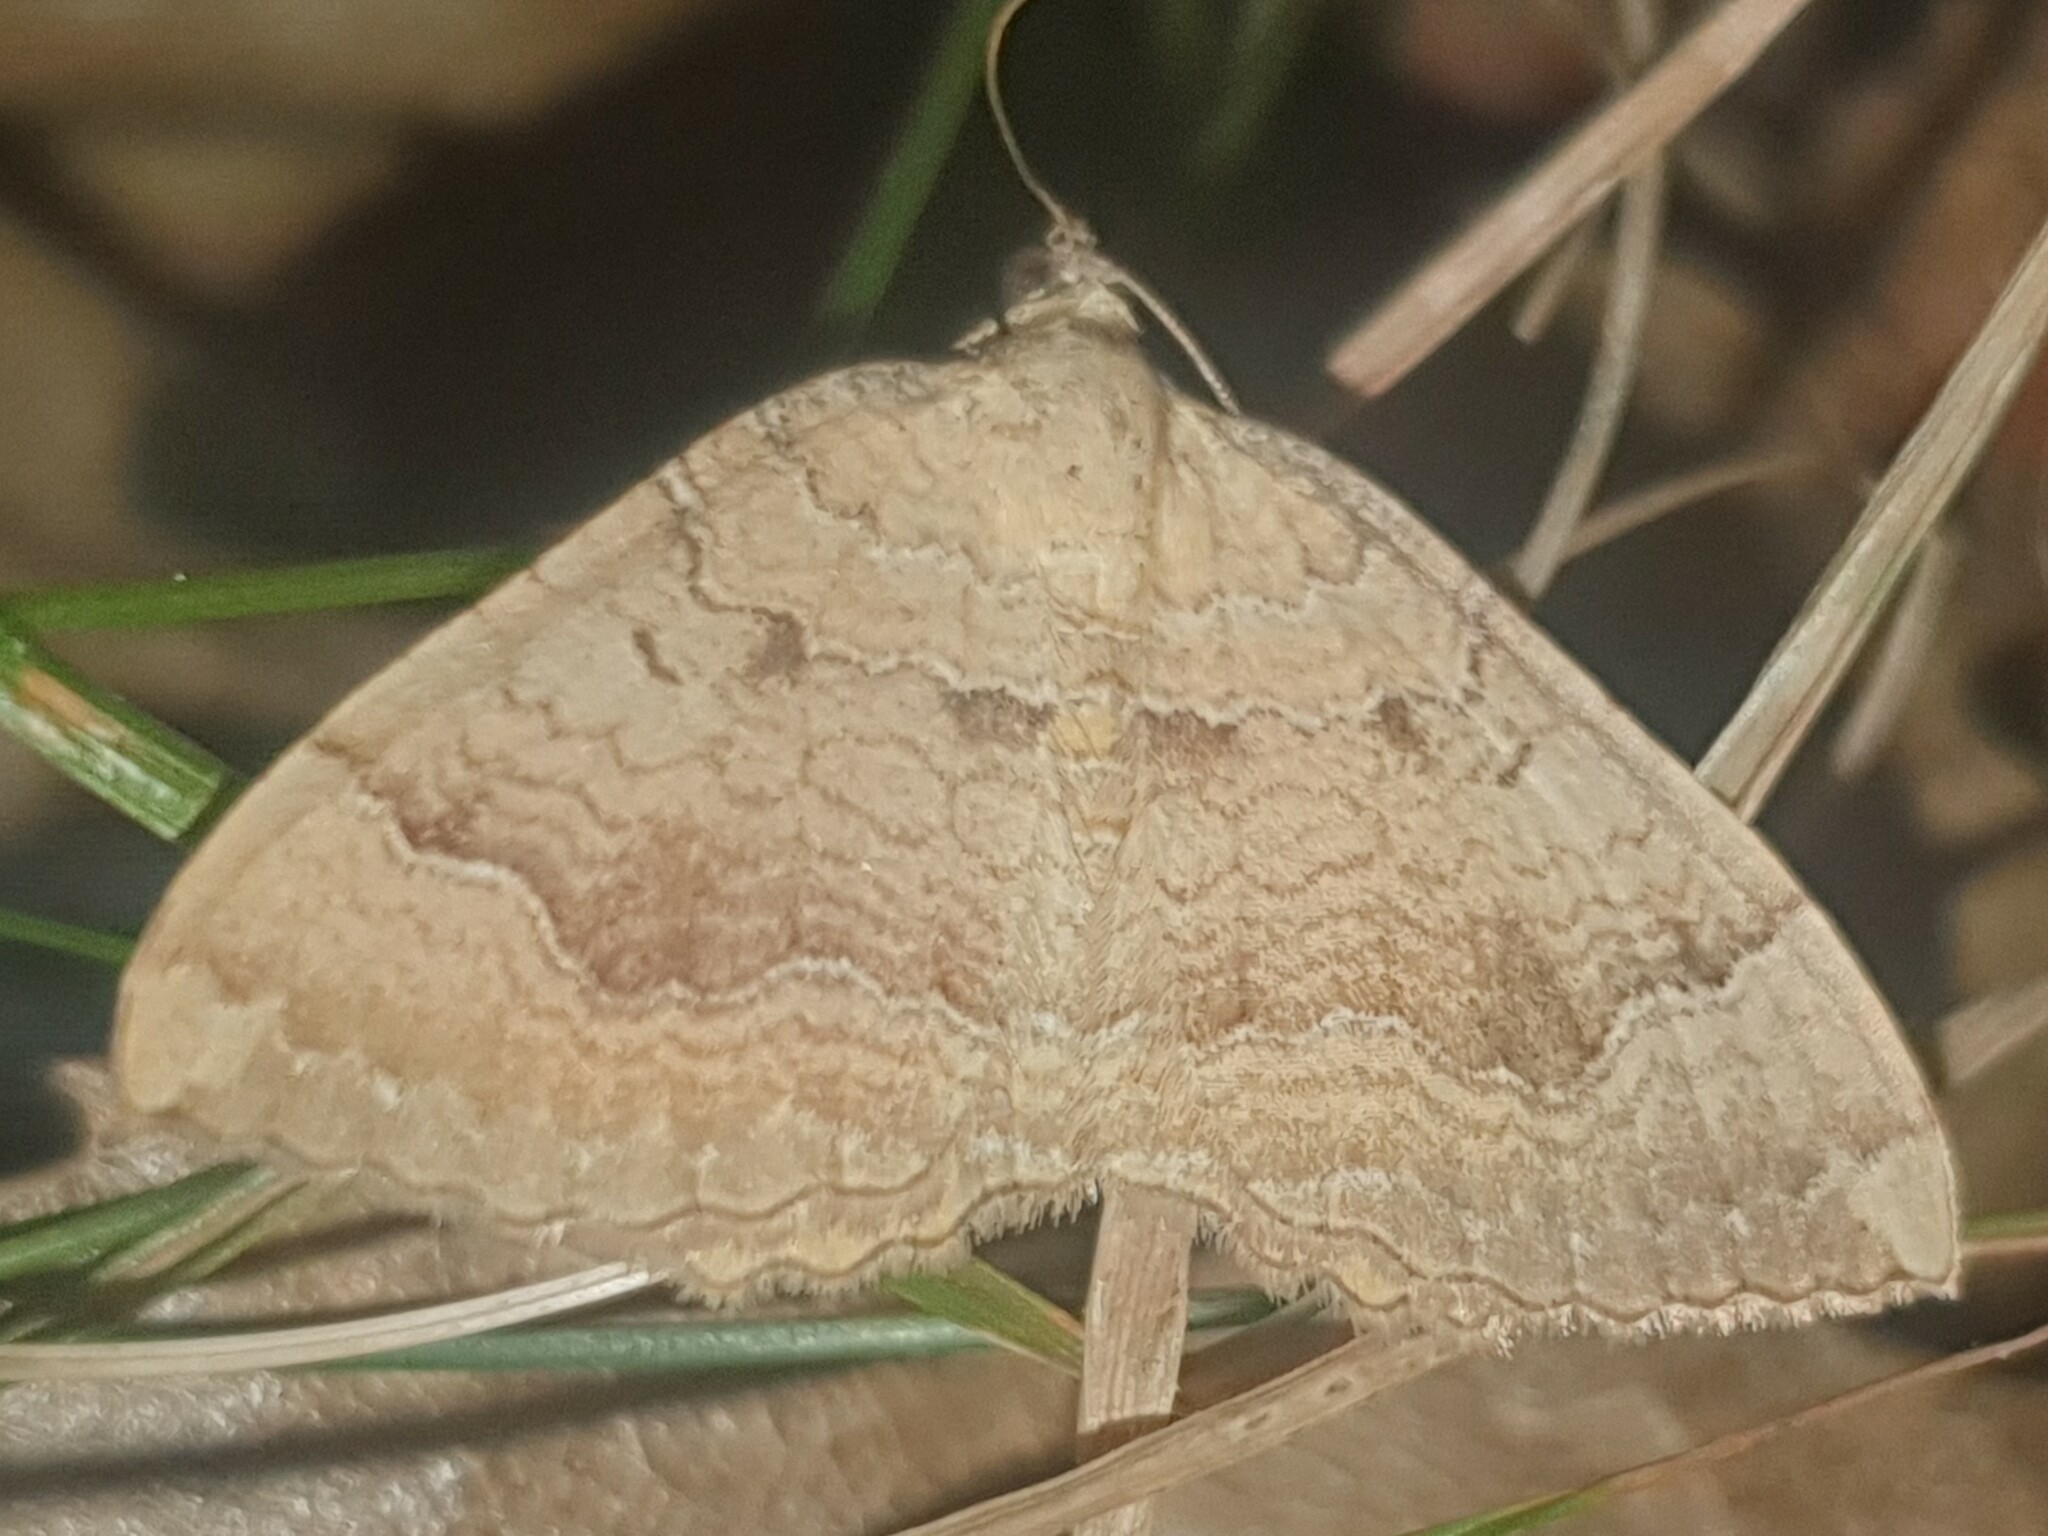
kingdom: Animalia
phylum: Arthropoda
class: Insecta
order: Lepidoptera
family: Geometridae
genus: Camptogramma
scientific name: Camptogramma bilineata
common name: Yellow shell
